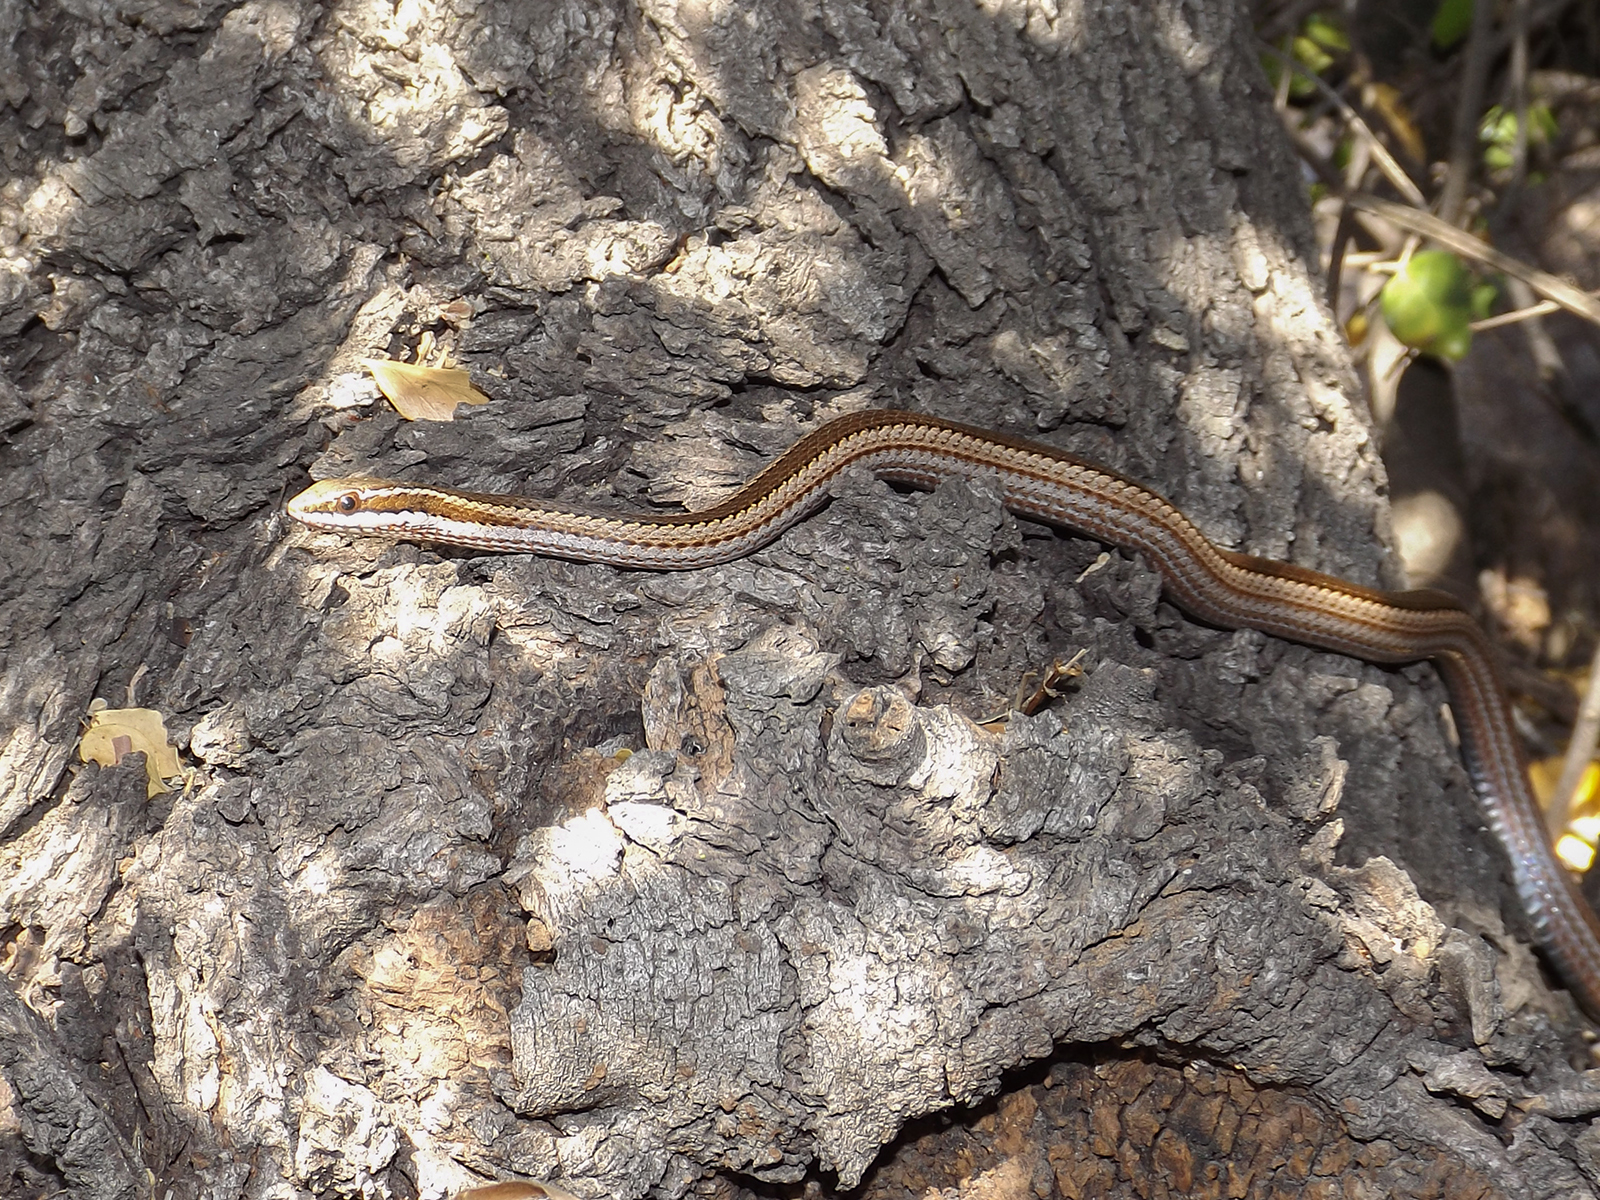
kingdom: Animalia
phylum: Chordata
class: Squamata
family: Colubridae
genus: Philodryas
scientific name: Philodryas chamissonis
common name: Chilean green racer
